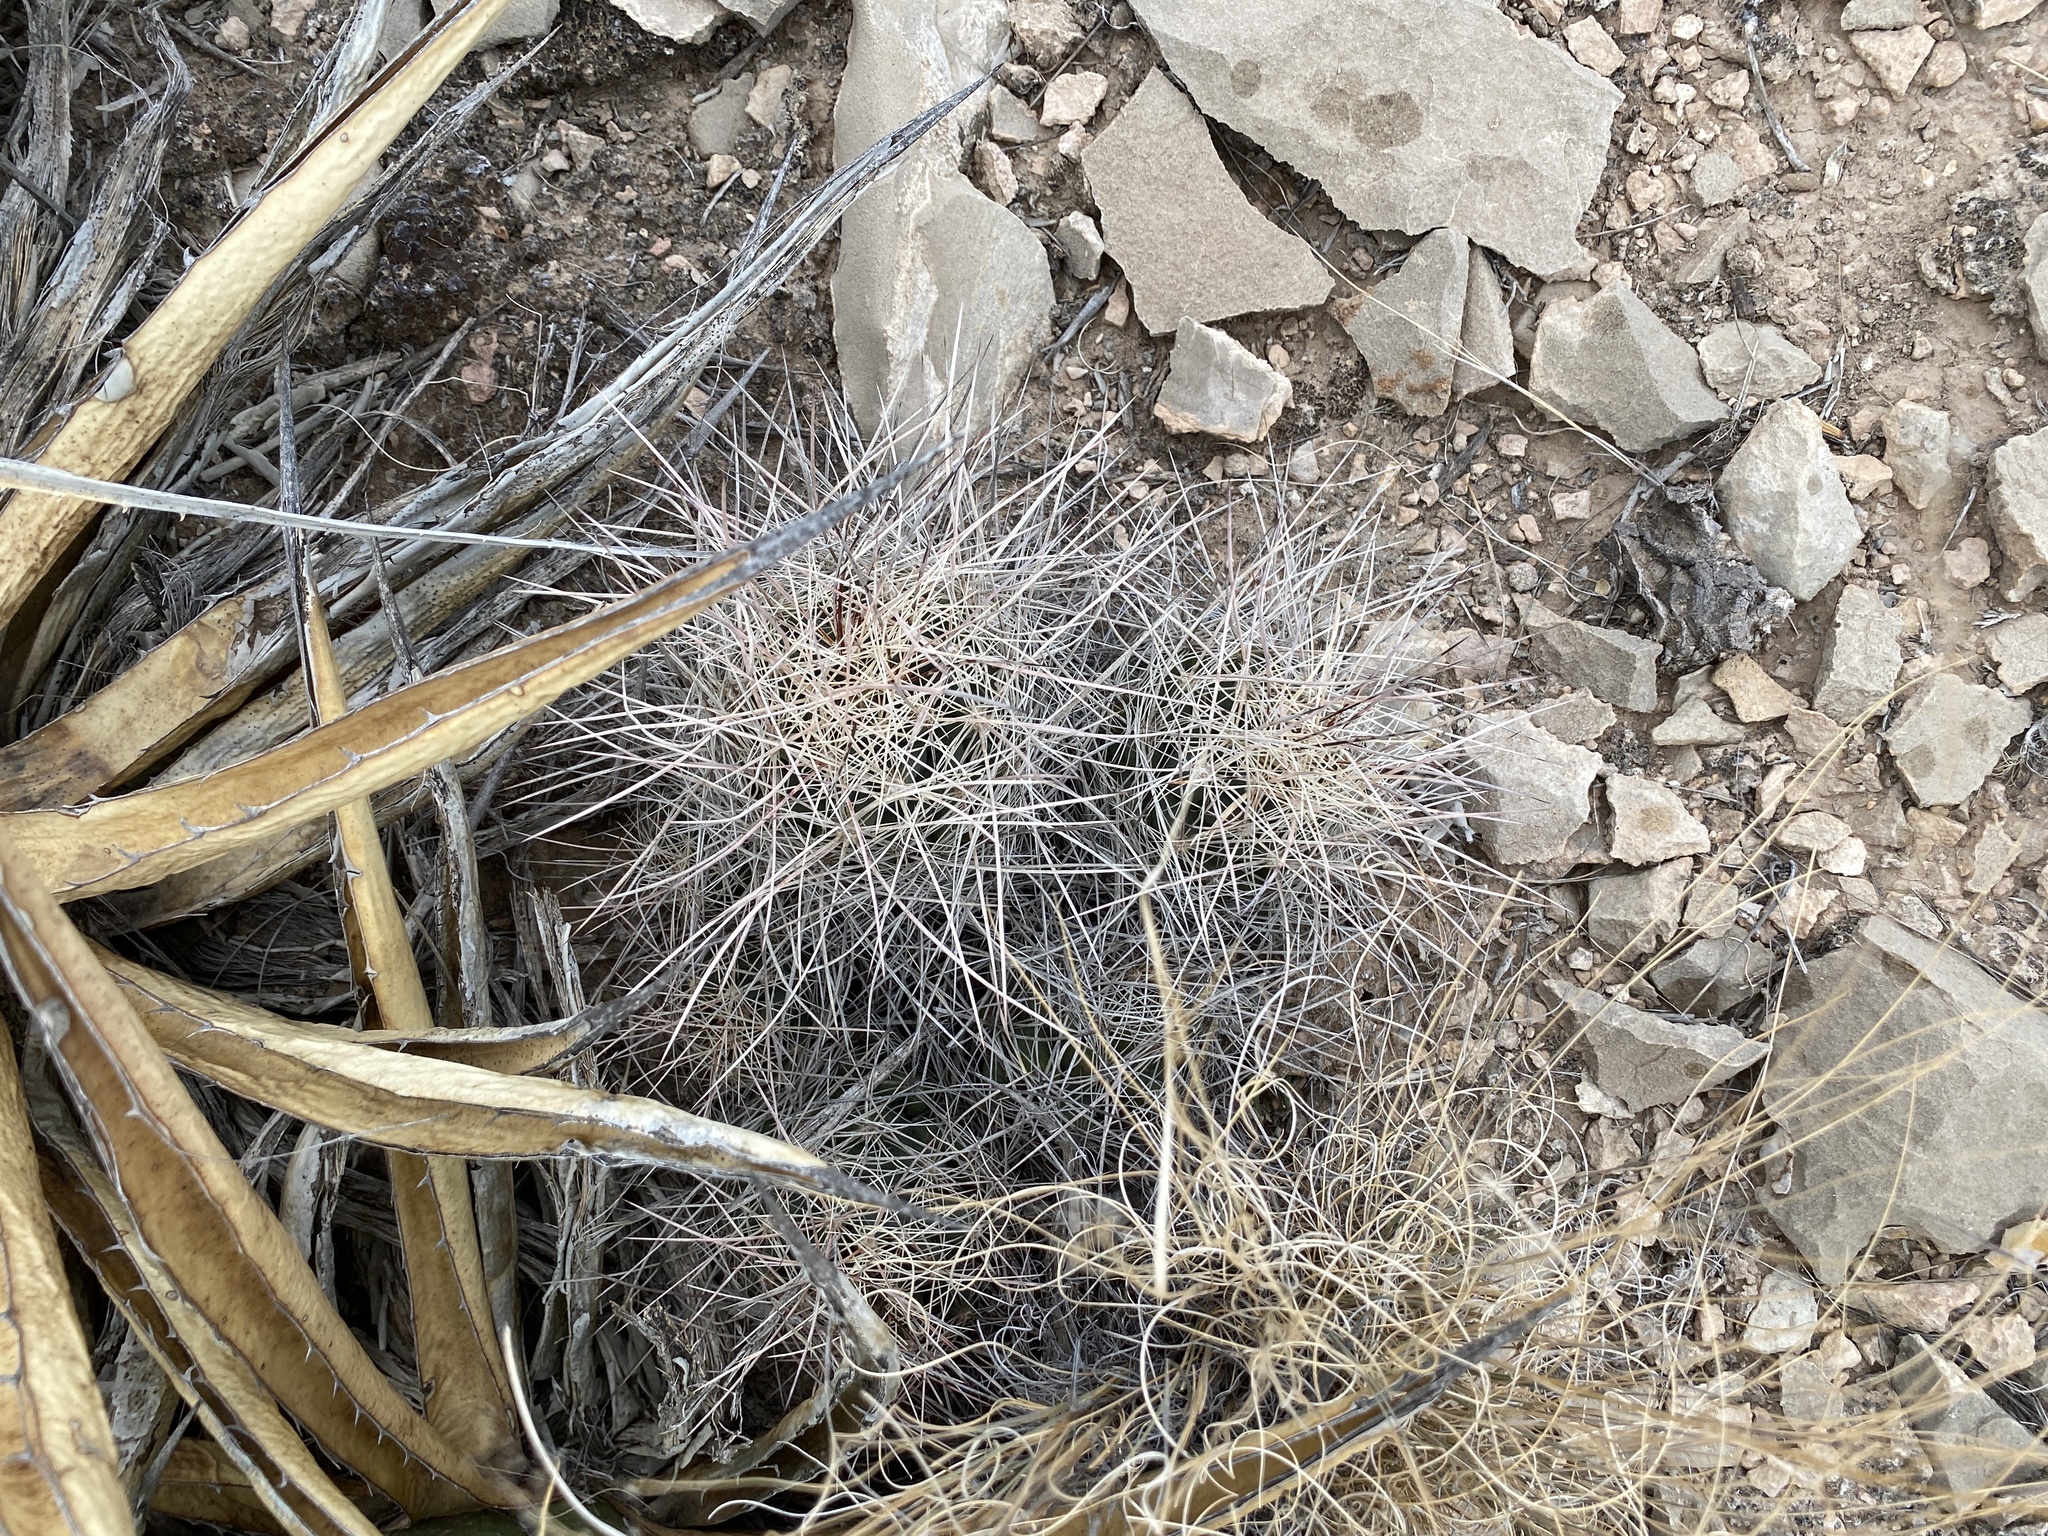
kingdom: Plantae
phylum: Tracheophyta
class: Magnoliopsida
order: Caryophyllales
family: Cactaceae
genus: Coryphantha
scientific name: Coryphantha macromeris
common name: Nipple beehive cactus
